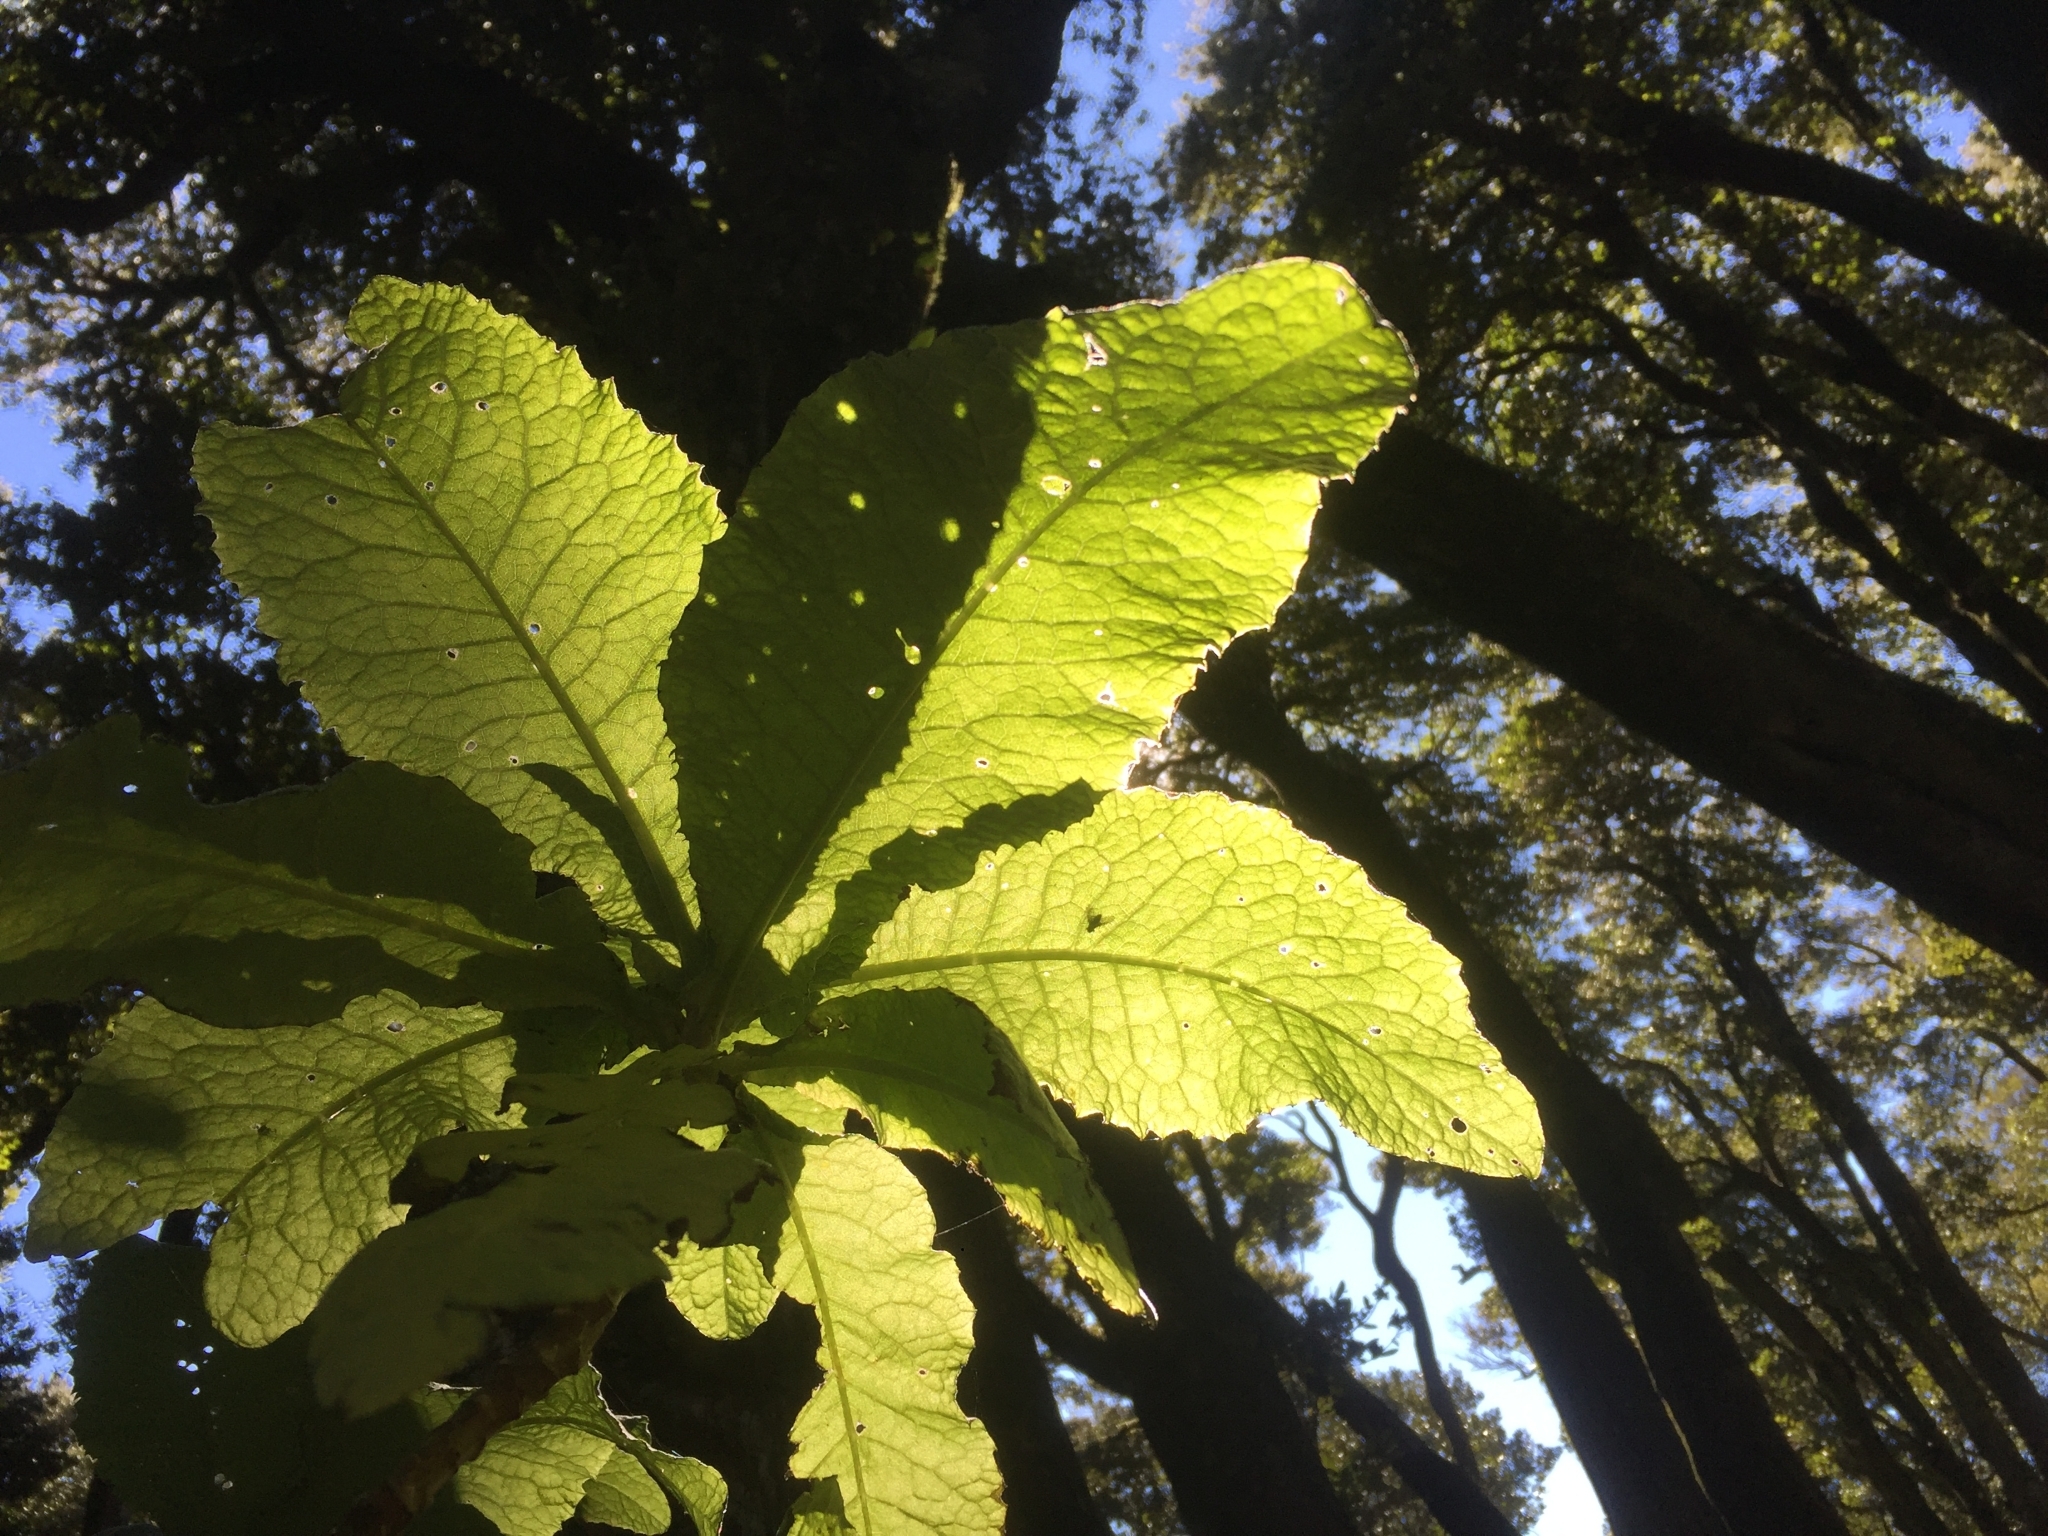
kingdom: Plantae
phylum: Tracheophyta
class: Magnoliopsida
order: Asterales
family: Asteraceae
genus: Acrisione
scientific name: Acrisione cymosa
